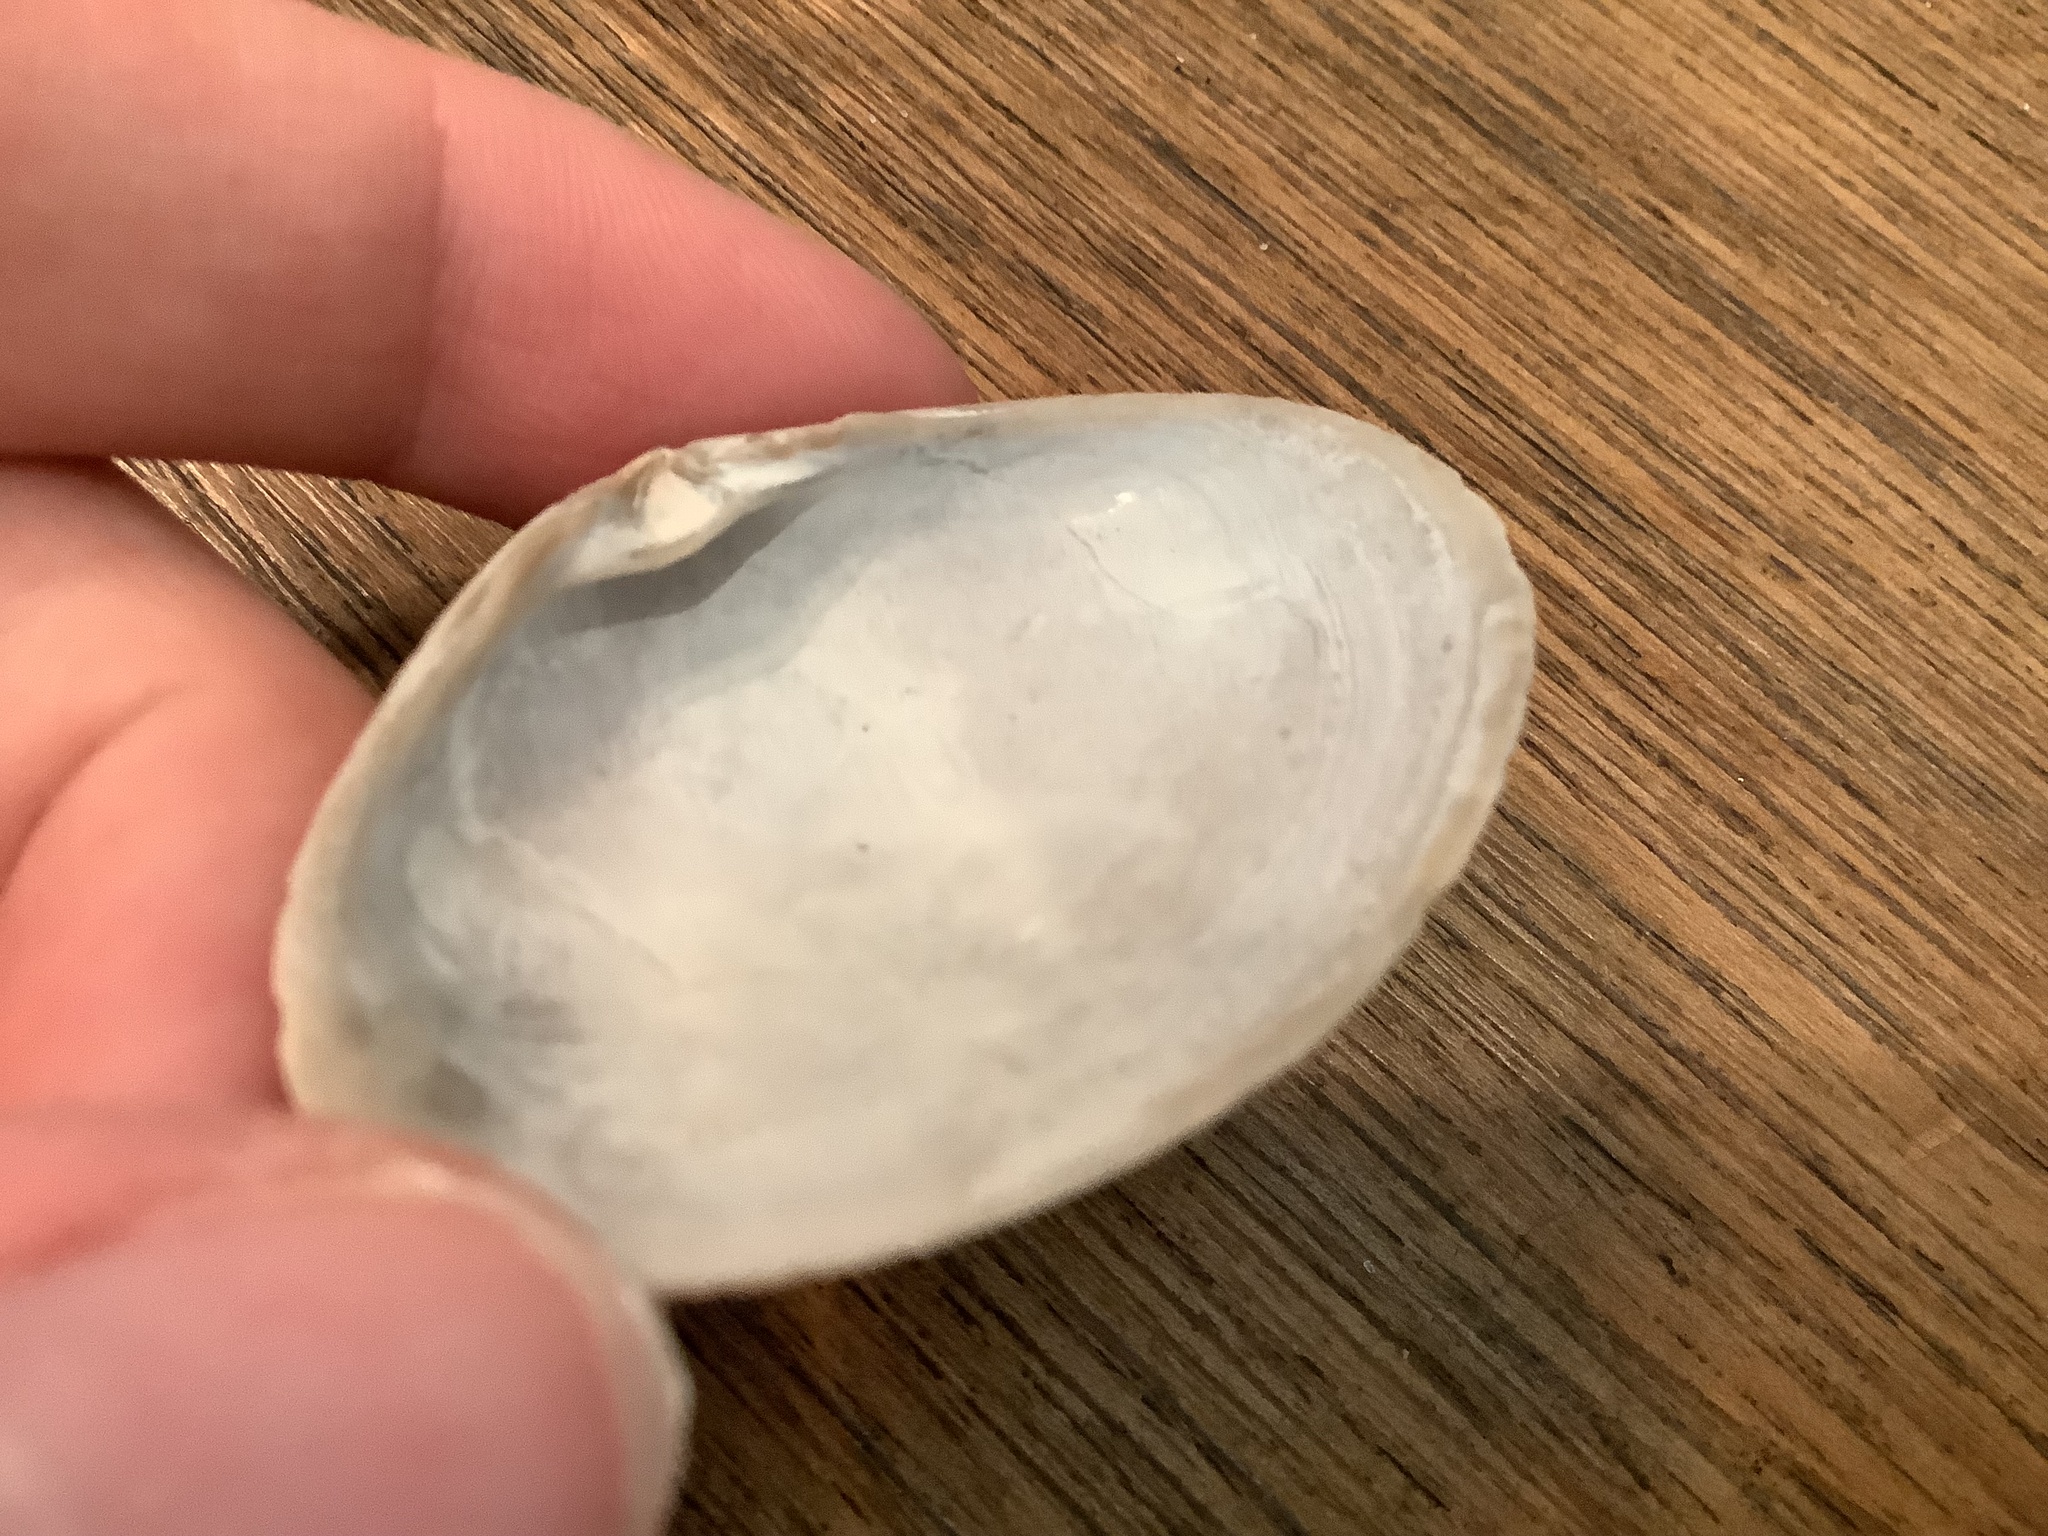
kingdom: Animalia
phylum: Mollusca
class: Bivalvia
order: Venerida
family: Mactridae
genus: Spisula
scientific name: Spisula raveneli
